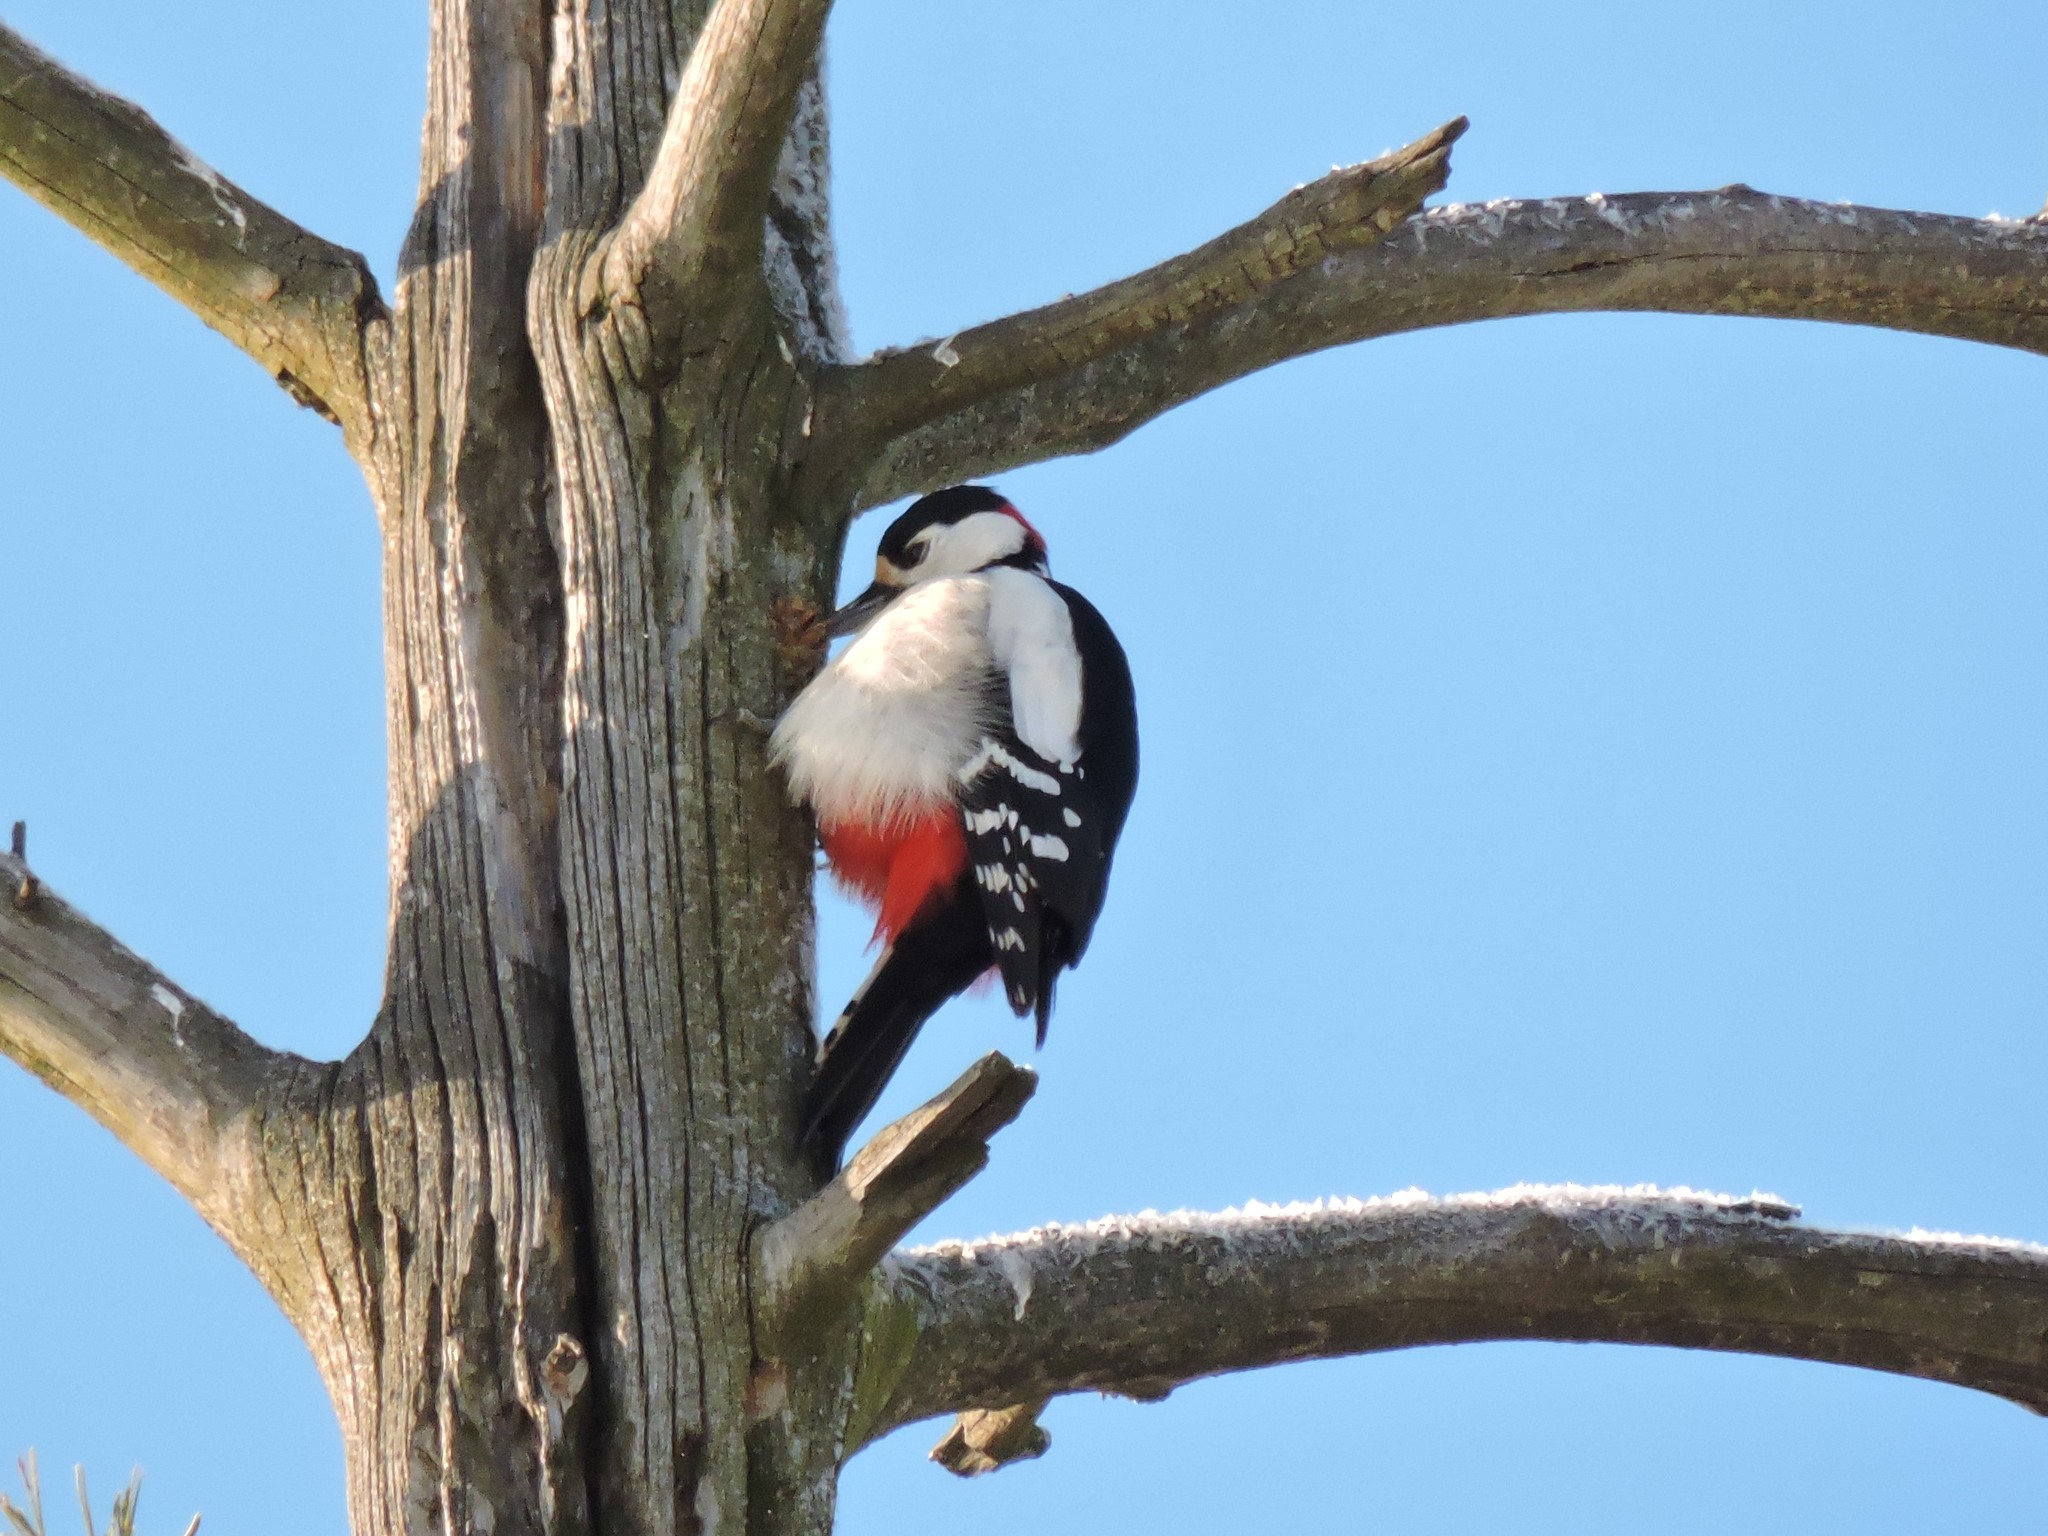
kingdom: Animalia
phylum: Chordata
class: Aves
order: Piciformes
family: Picidae
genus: Dendrocopos
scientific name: Dendrocopos major
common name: Great spotted woodpecker
